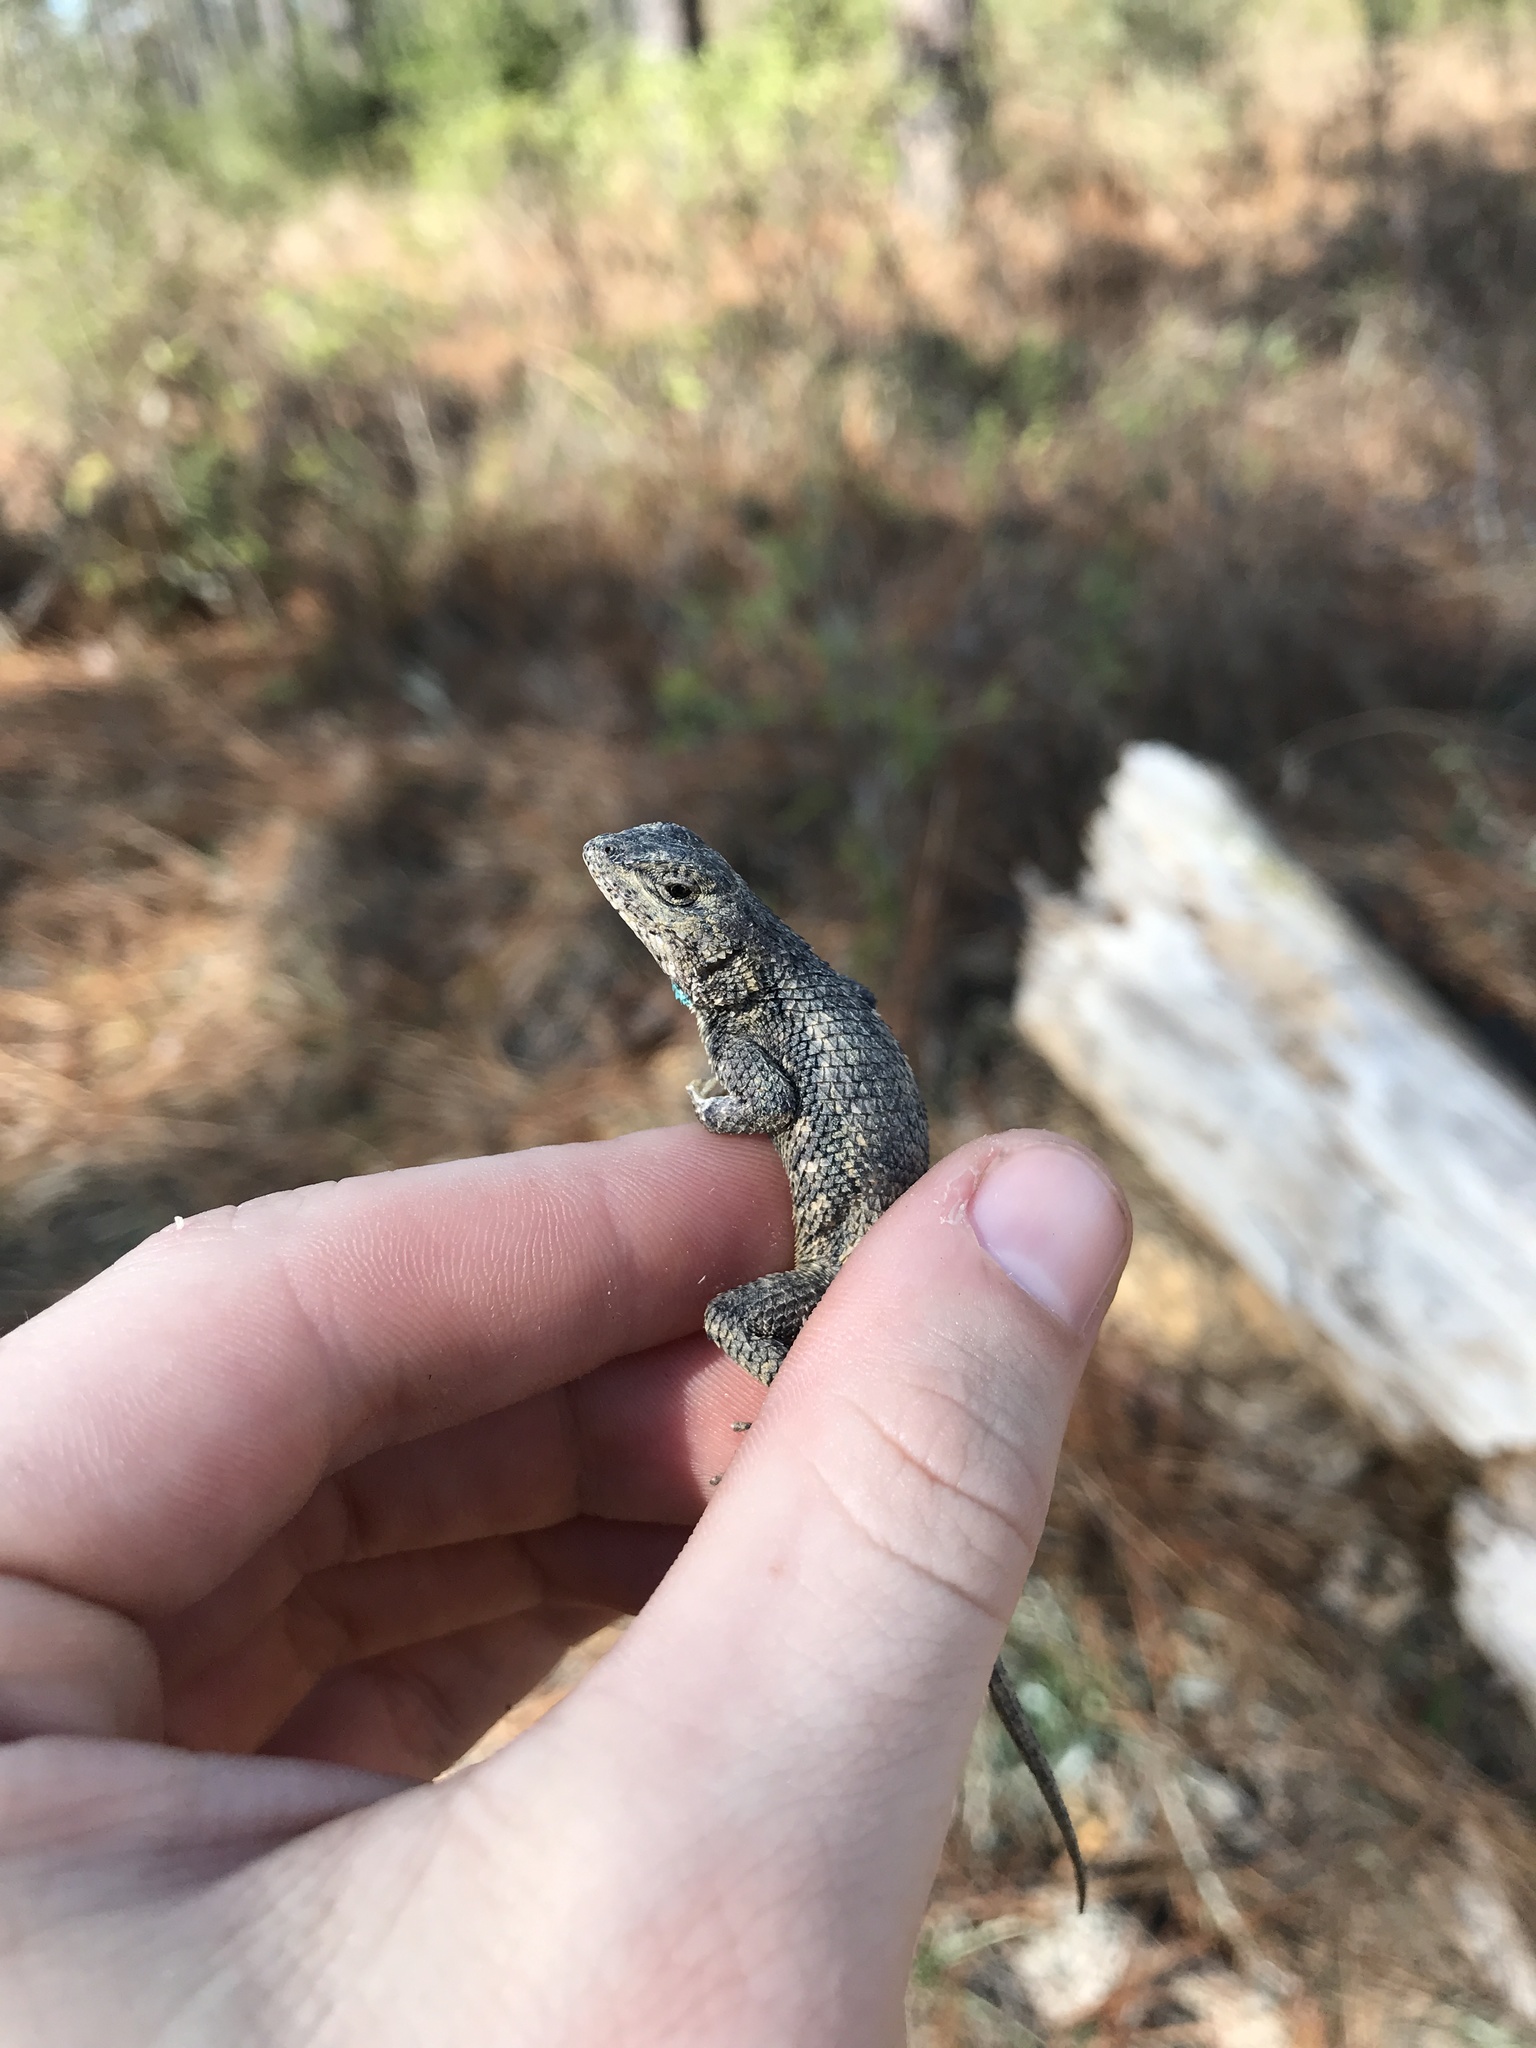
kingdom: Animalia
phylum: Chordata
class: Squamata
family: Phrynosomatidae
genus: Sceloporus
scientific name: Sceloporus consobrinus
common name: Southern prairie lizard
